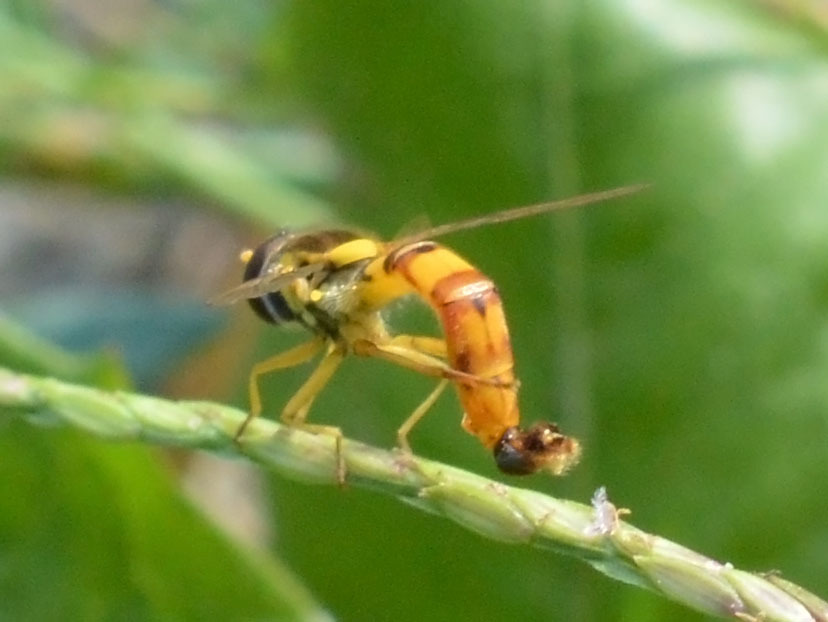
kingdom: Animalia
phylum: Arthropoda
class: Insecta
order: Diptera
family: Syrphidae
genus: Sphaerophoria
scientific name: Sphaerophoria scripta
